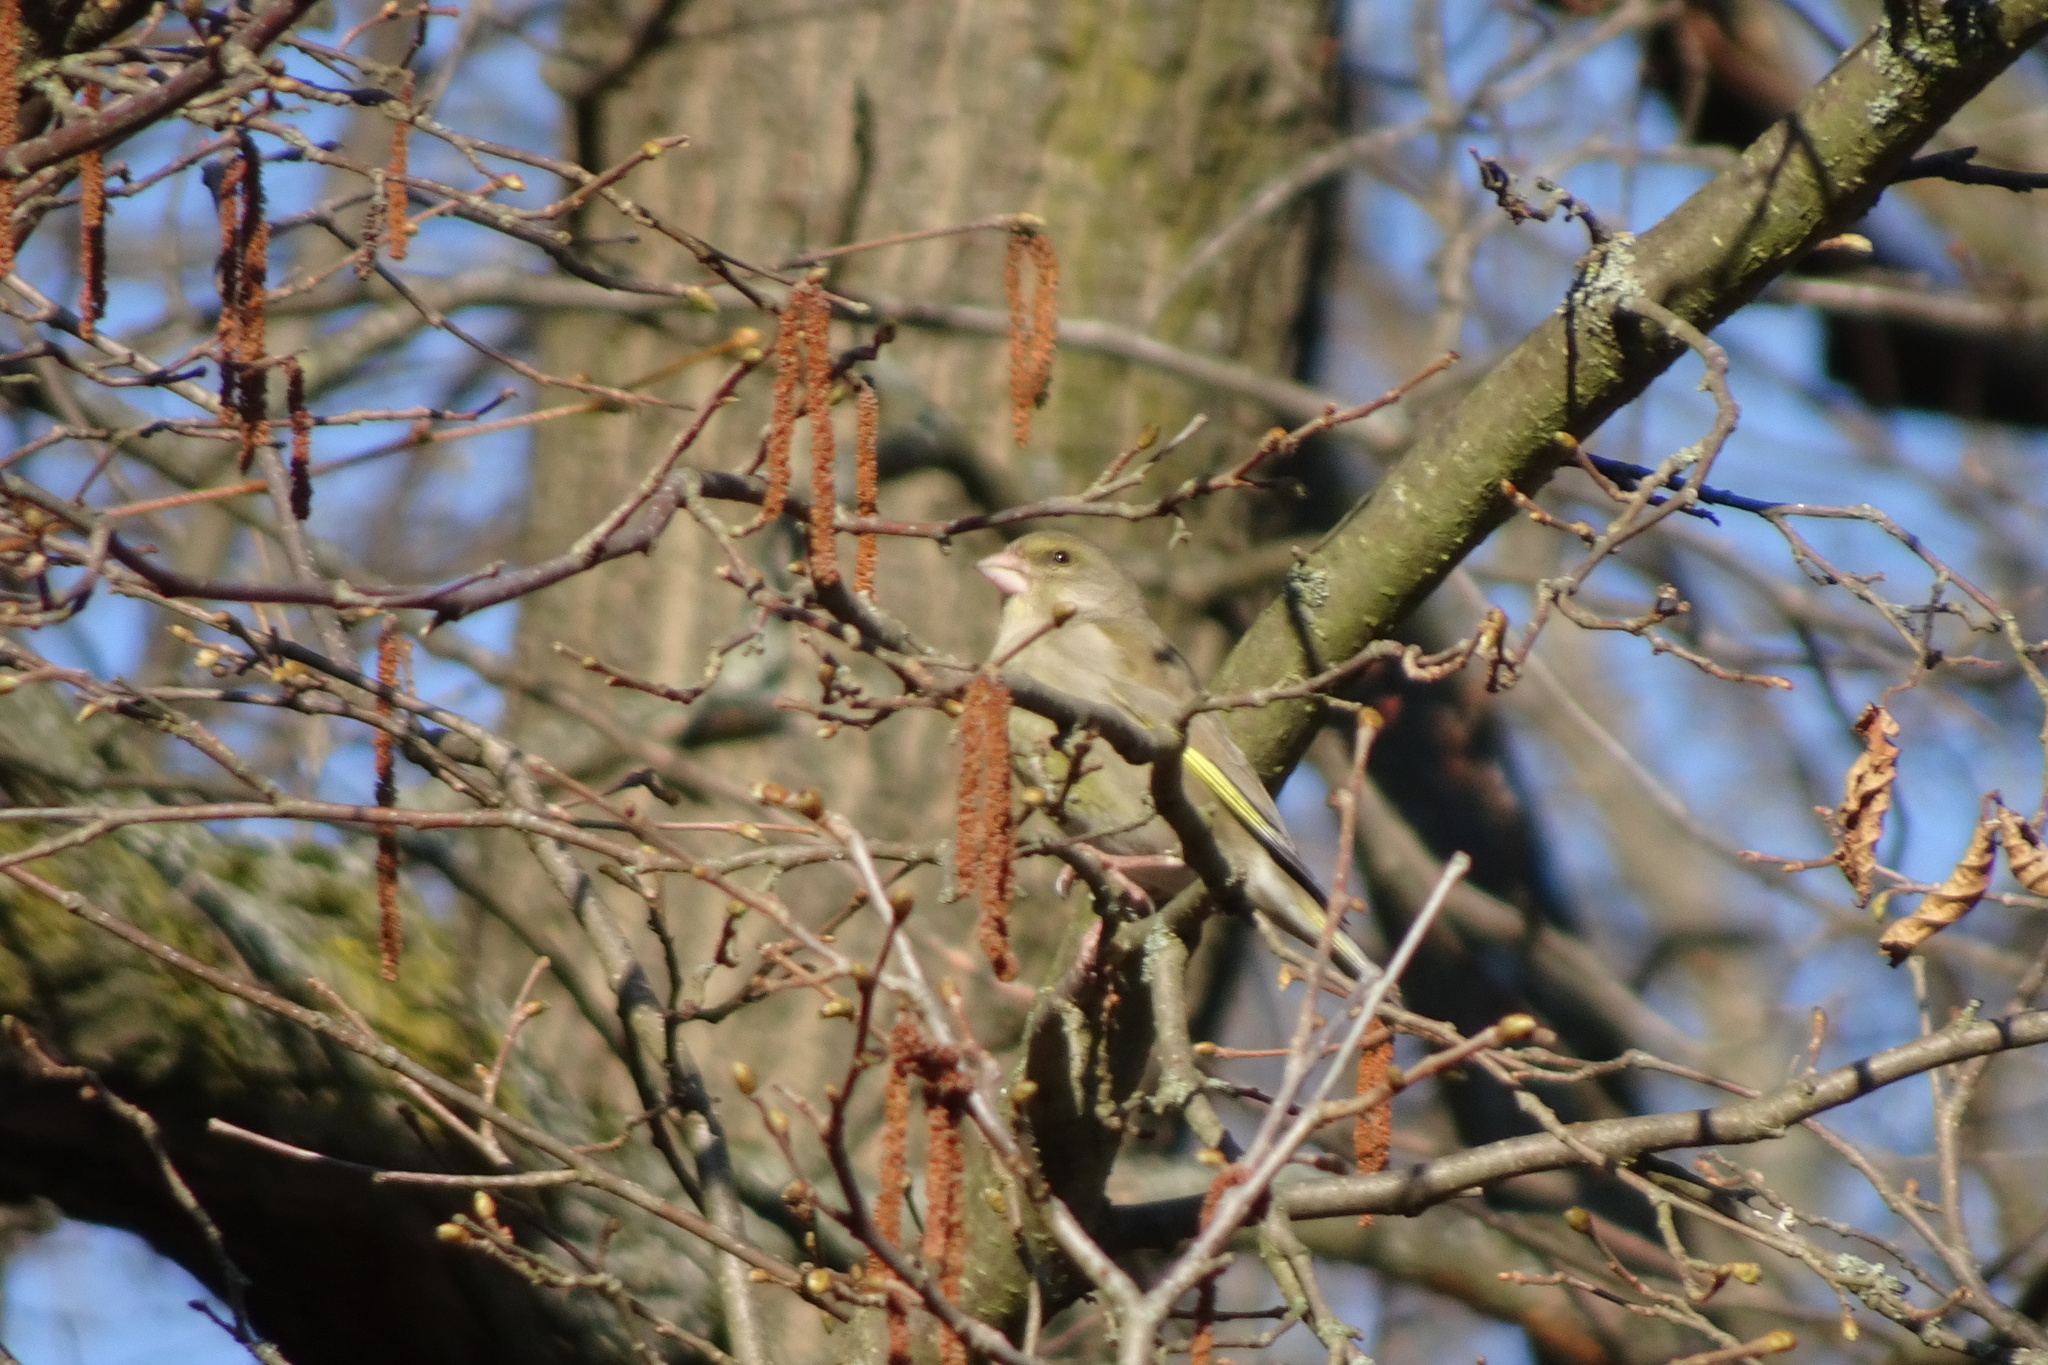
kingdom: Plantae
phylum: Tracheophyta
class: Liliopsida
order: Poales
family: Poaceae
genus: Chloris
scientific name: Chloris chloris
